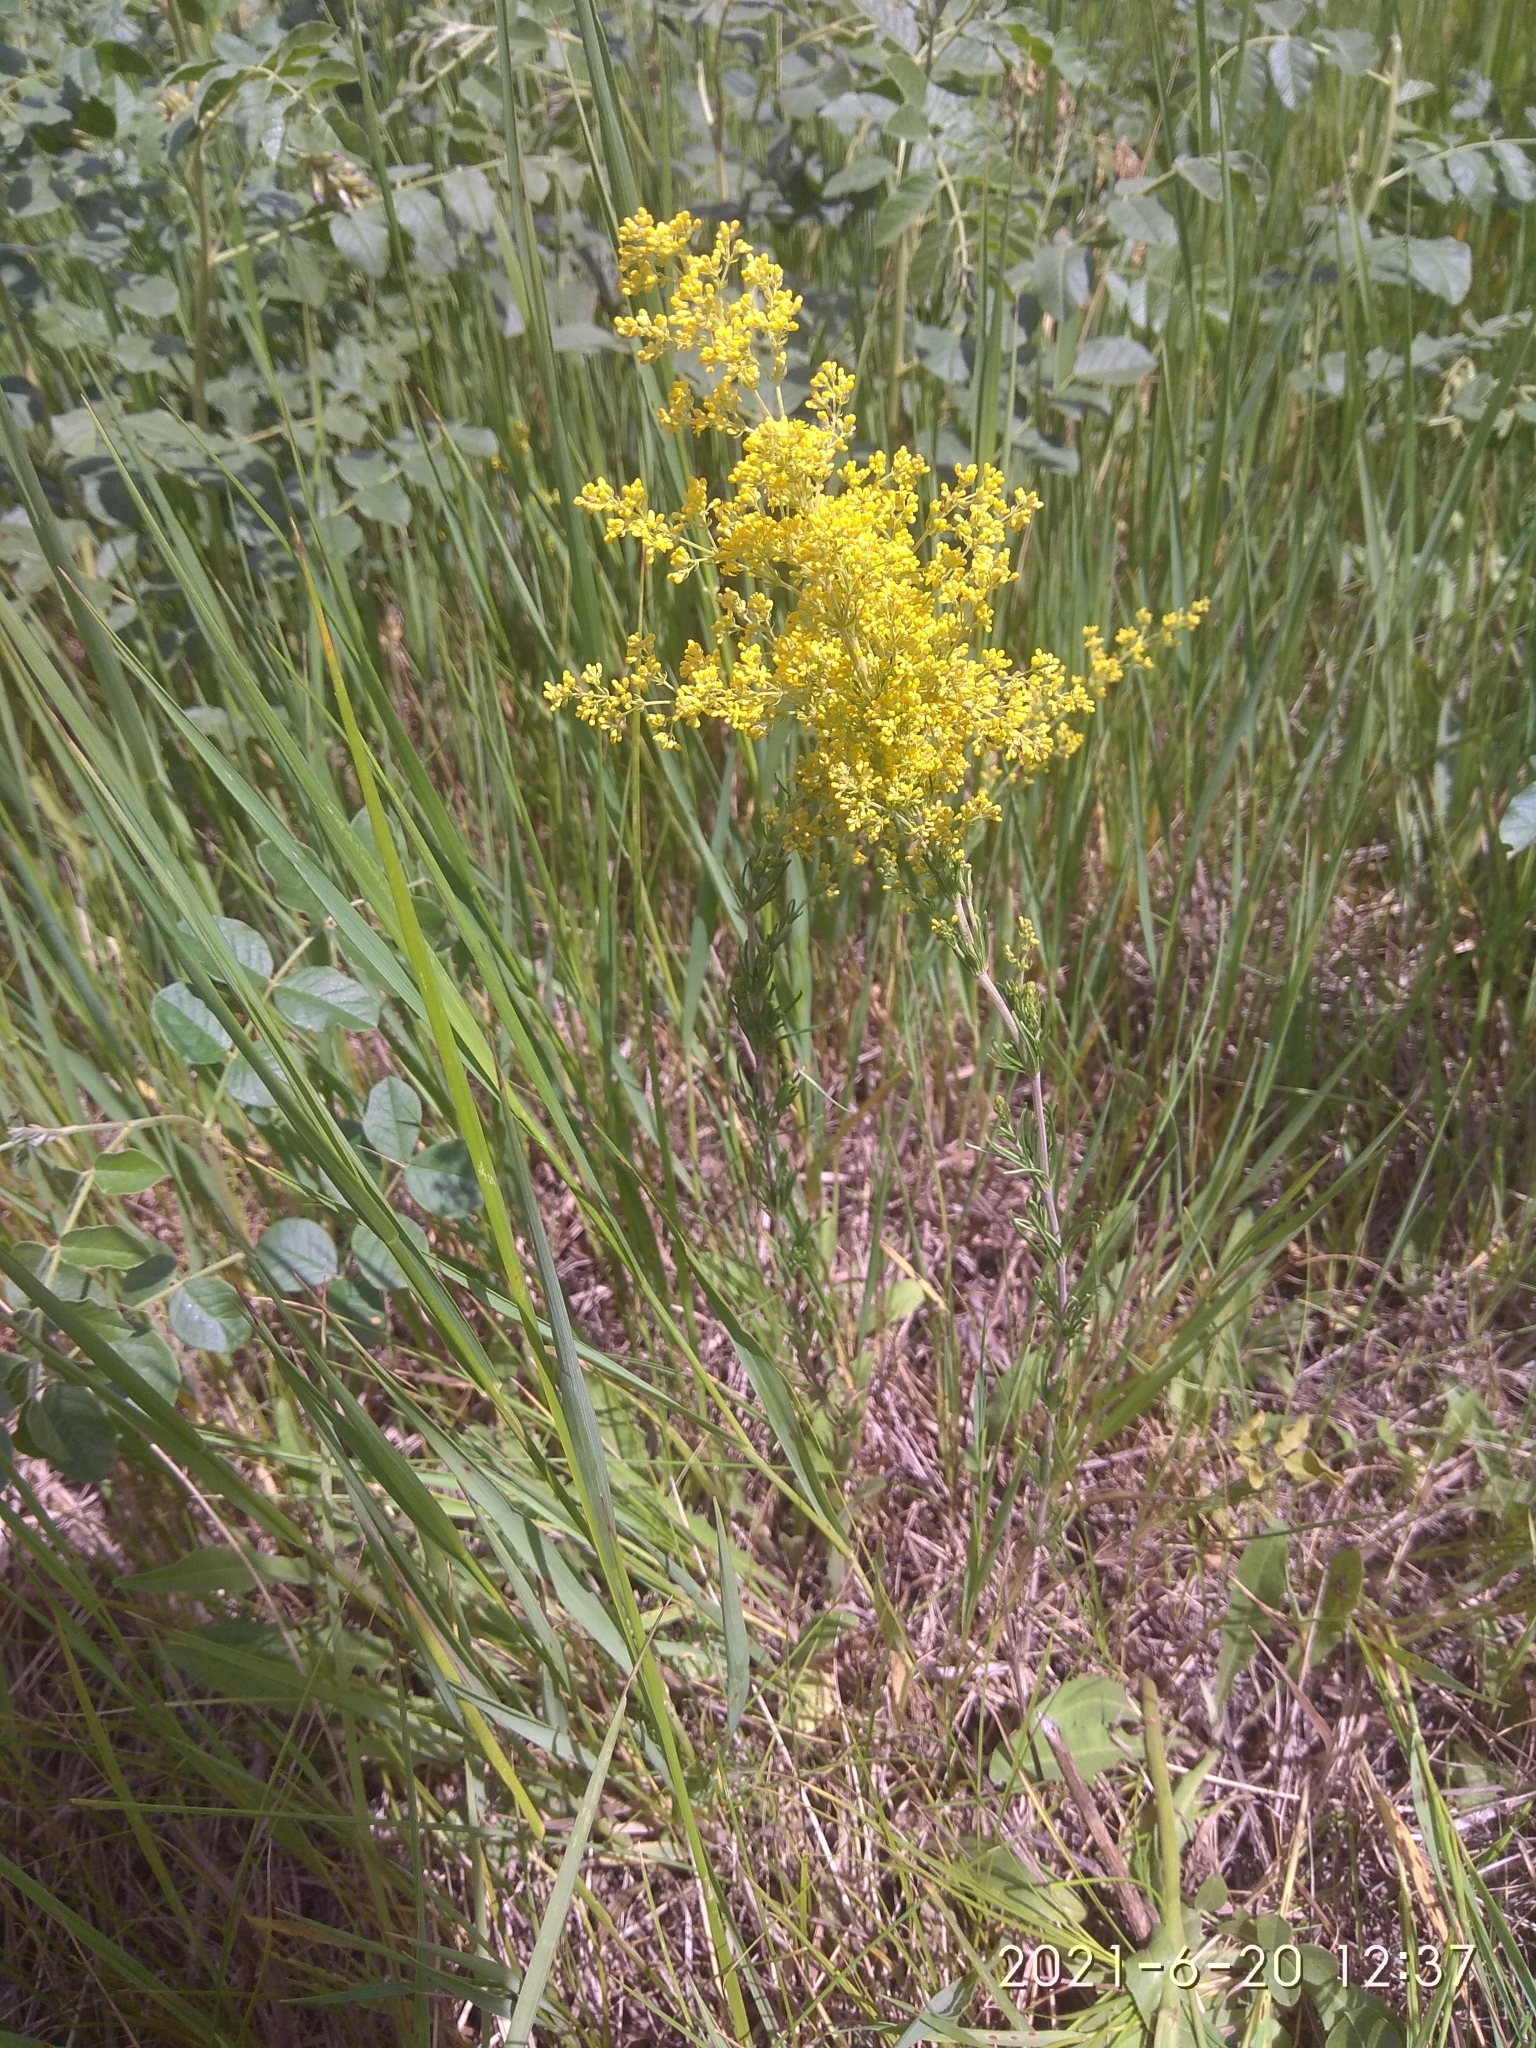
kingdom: Plantae
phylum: Tracheophyta
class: Magnoliopsida
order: Gentianales
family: Rubiaceae
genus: Galium
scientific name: Galium verum
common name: Lady's bedstraw
